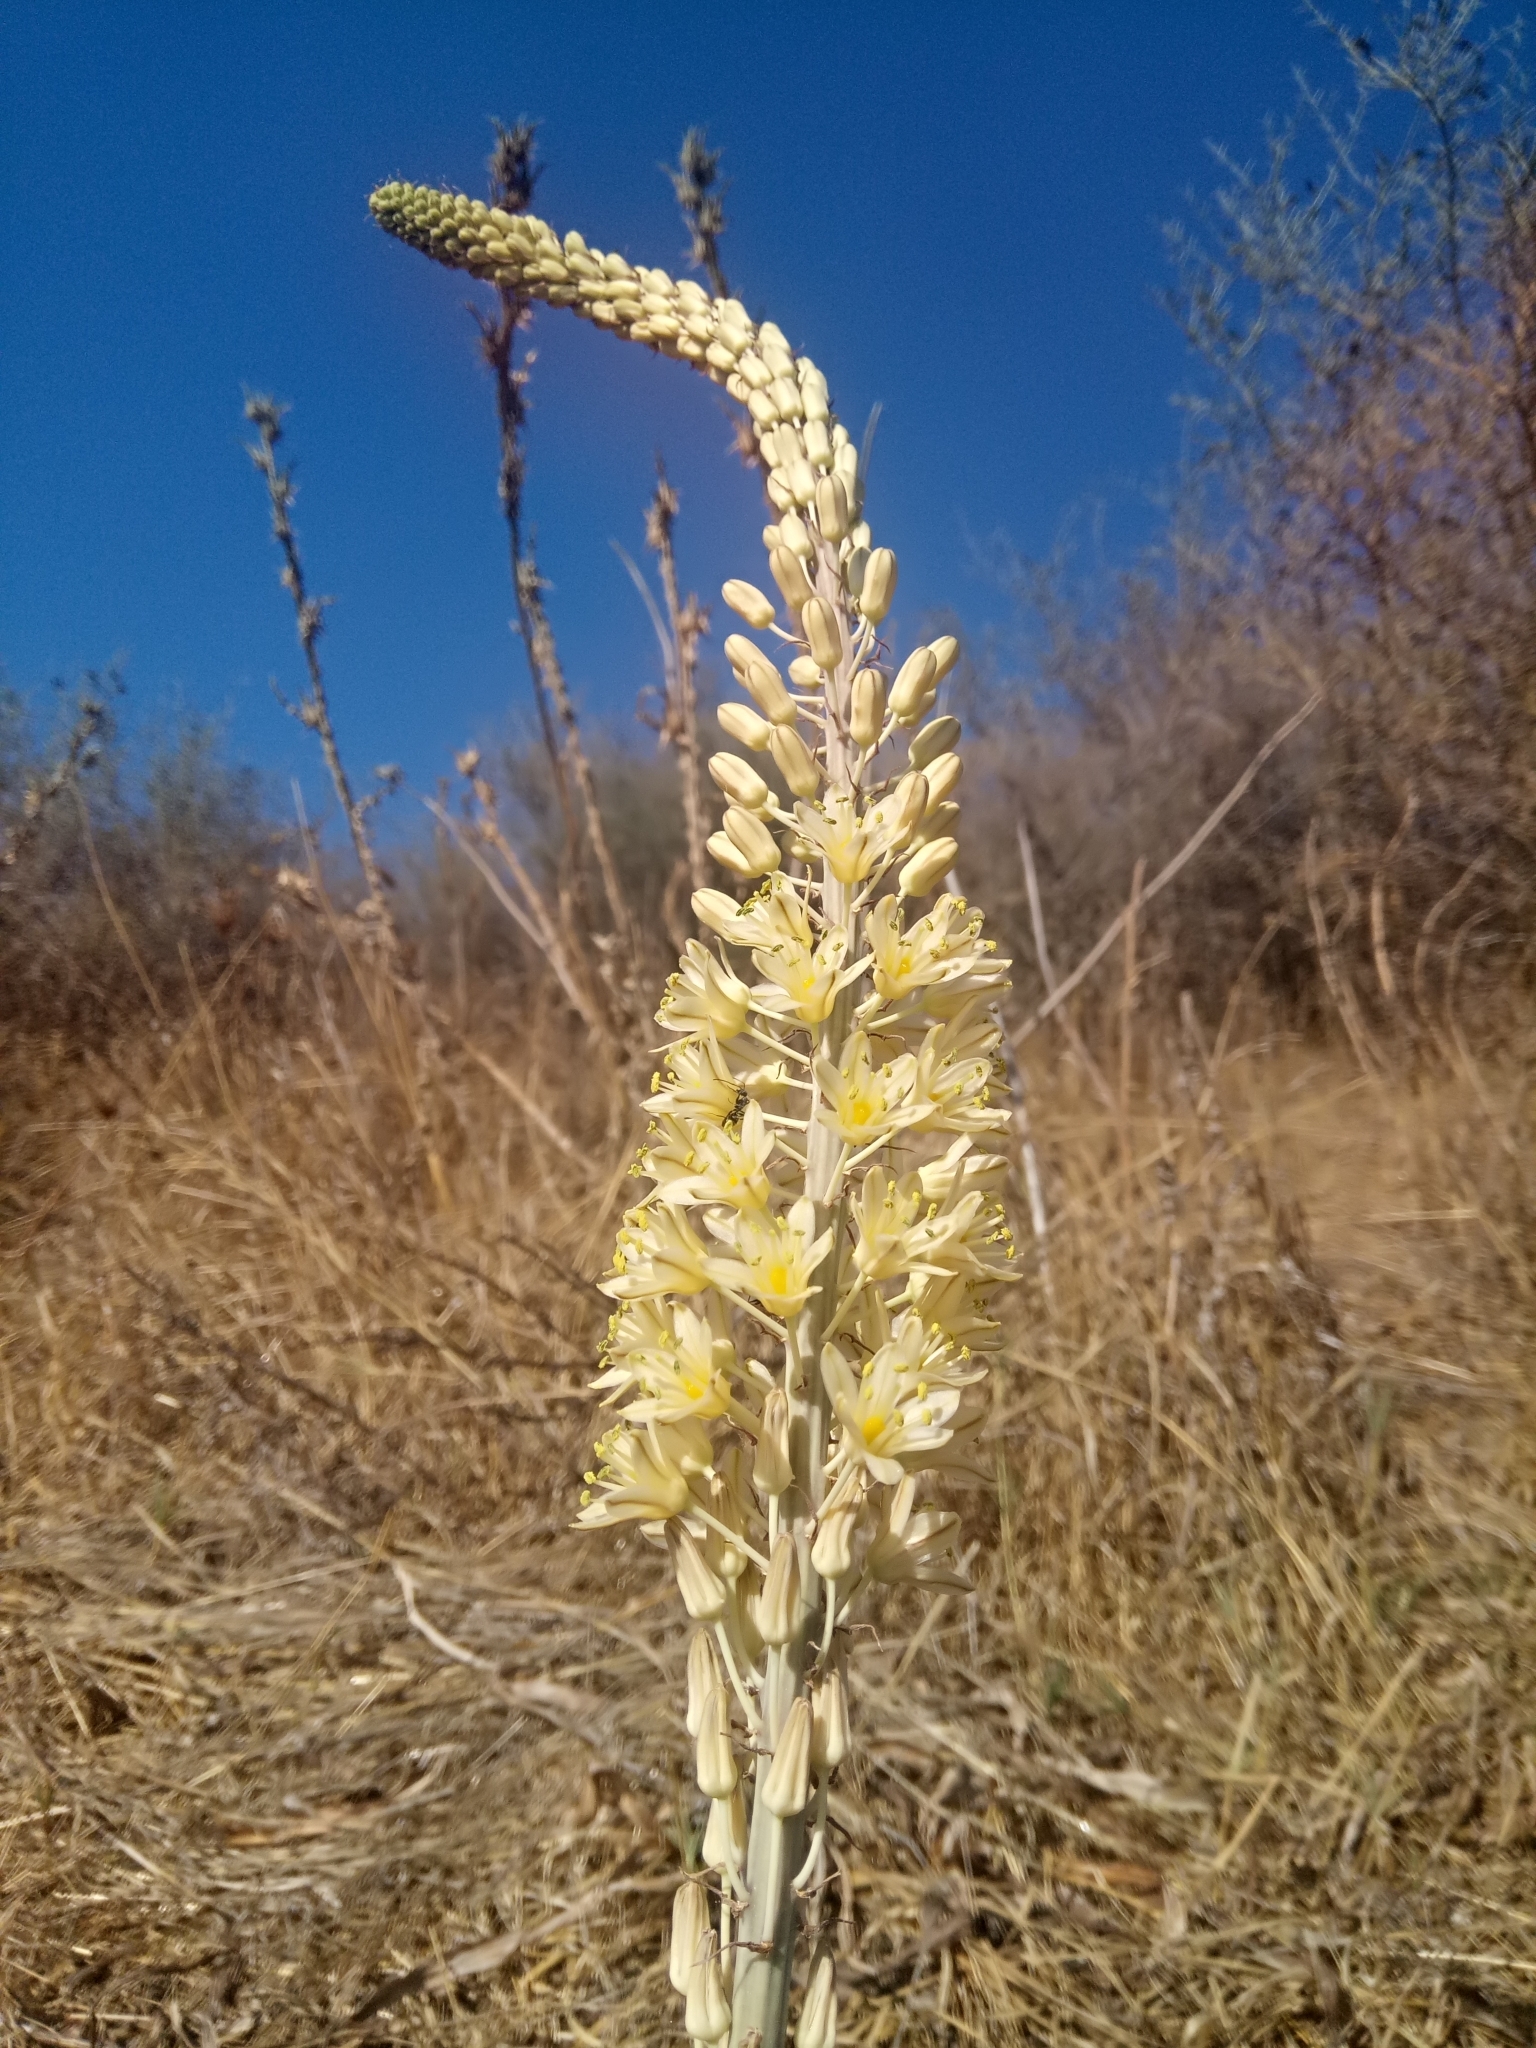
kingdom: Plantae
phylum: Tracheophyta
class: Liliopsida
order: Asparagales
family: Asparagaceae
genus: Drimia
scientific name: Drimia anthericoides
